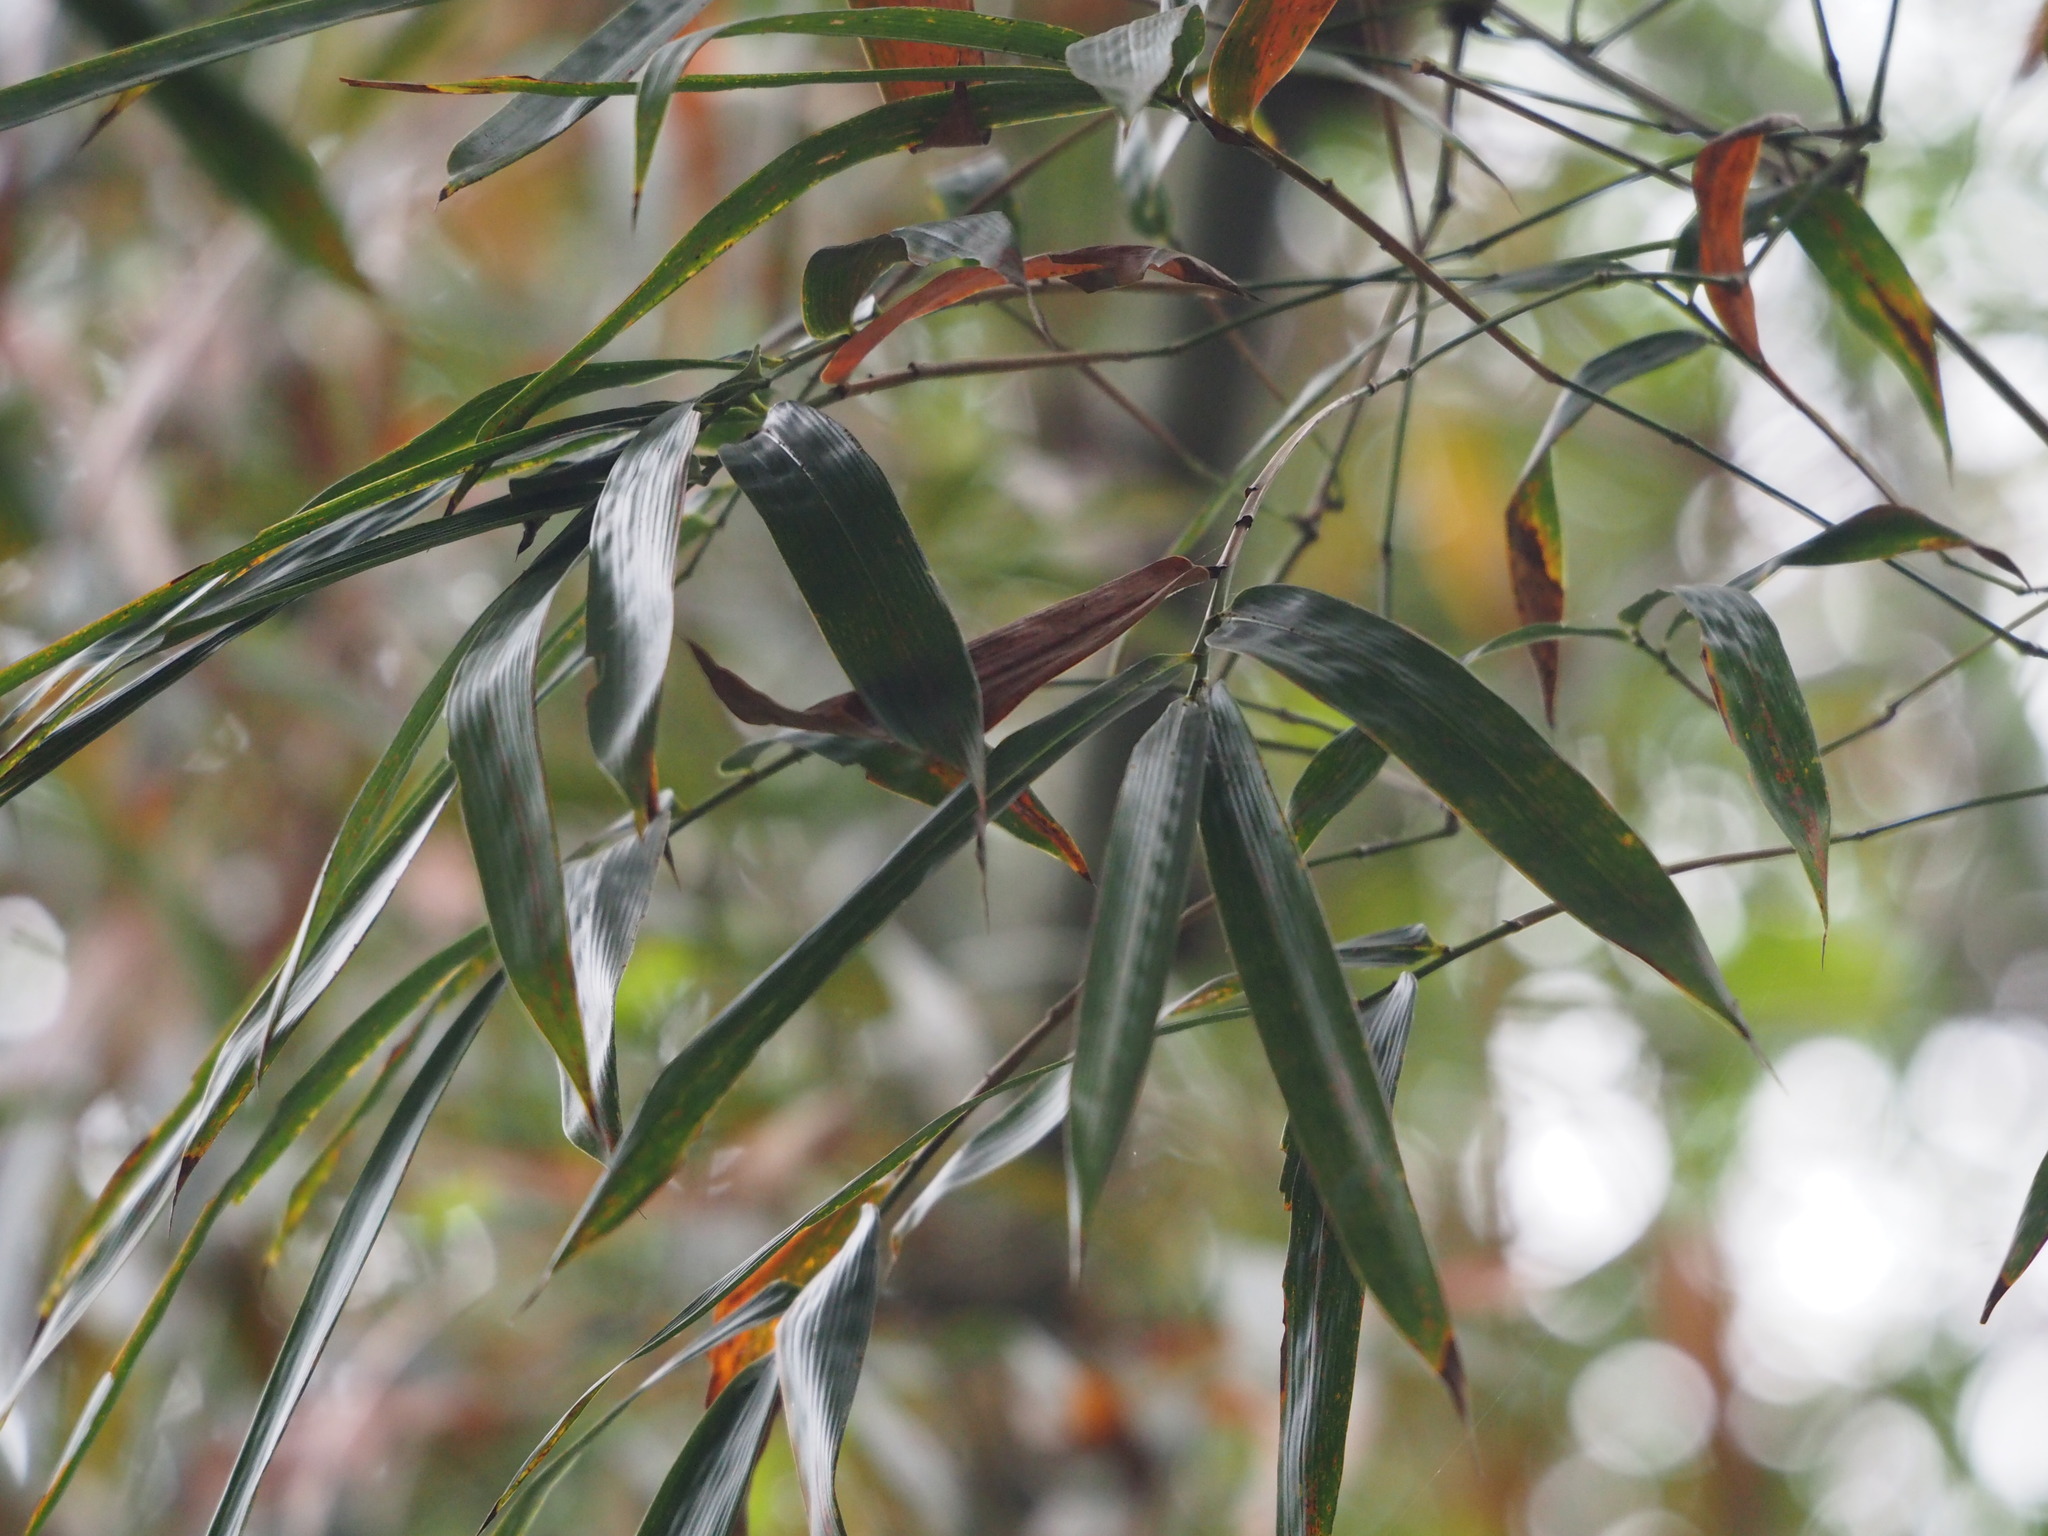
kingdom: Plantae
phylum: Tracheophyta
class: Liliopsida
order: Poales
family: Poaceae
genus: Bambusa
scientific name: Bambusa spinosa
